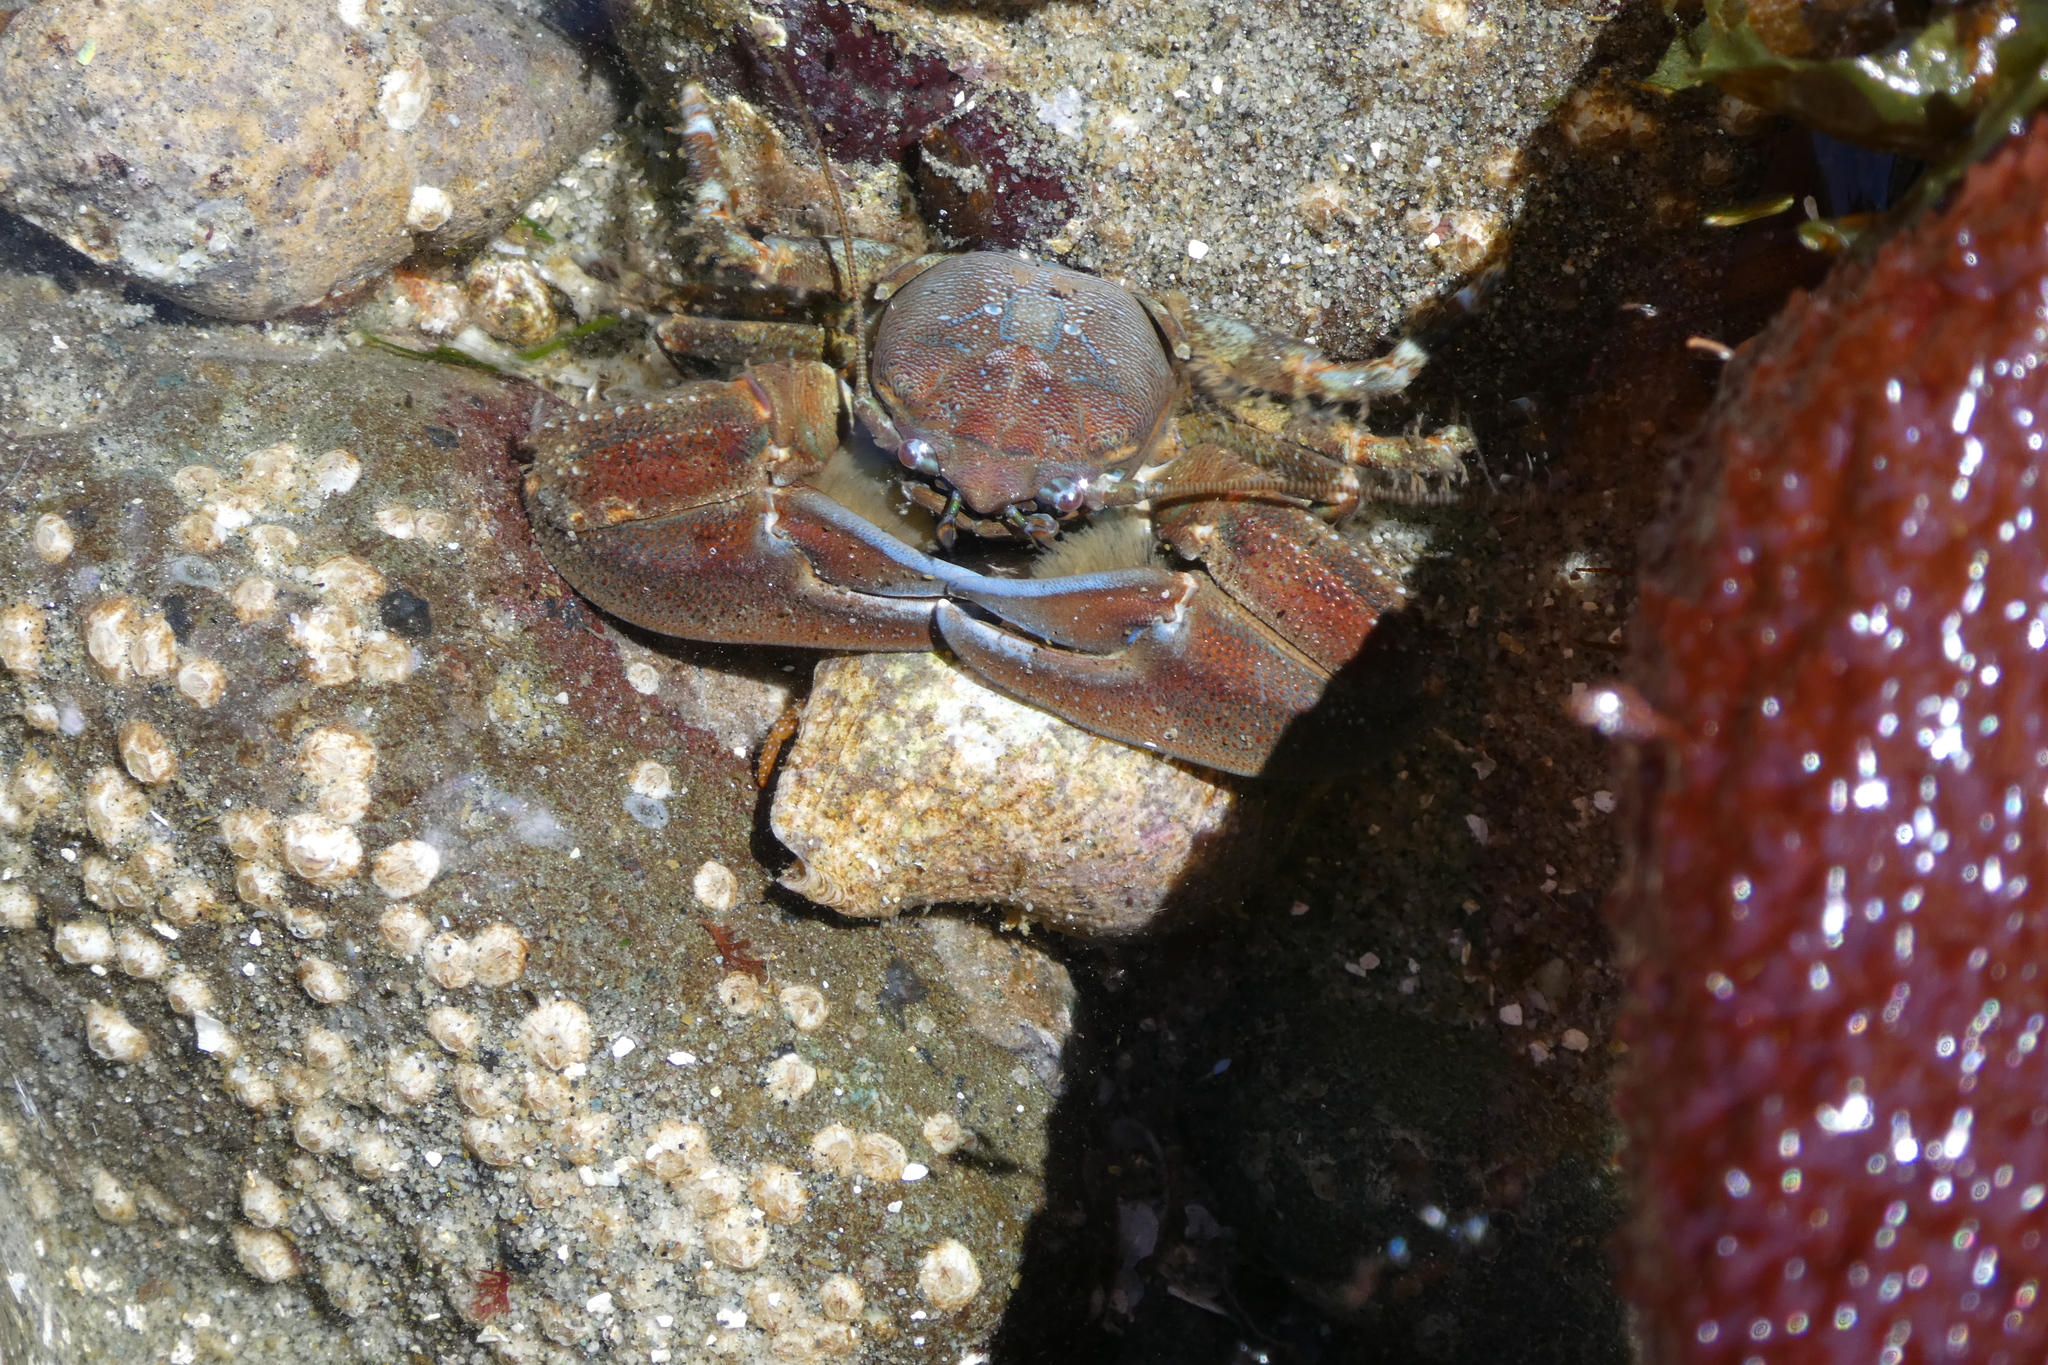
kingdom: Animalia
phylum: Arthropoda
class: Malacostraca
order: Decapoda
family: Porcellanidae
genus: Petrolisthes
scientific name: Petrolisthes eriomerus
